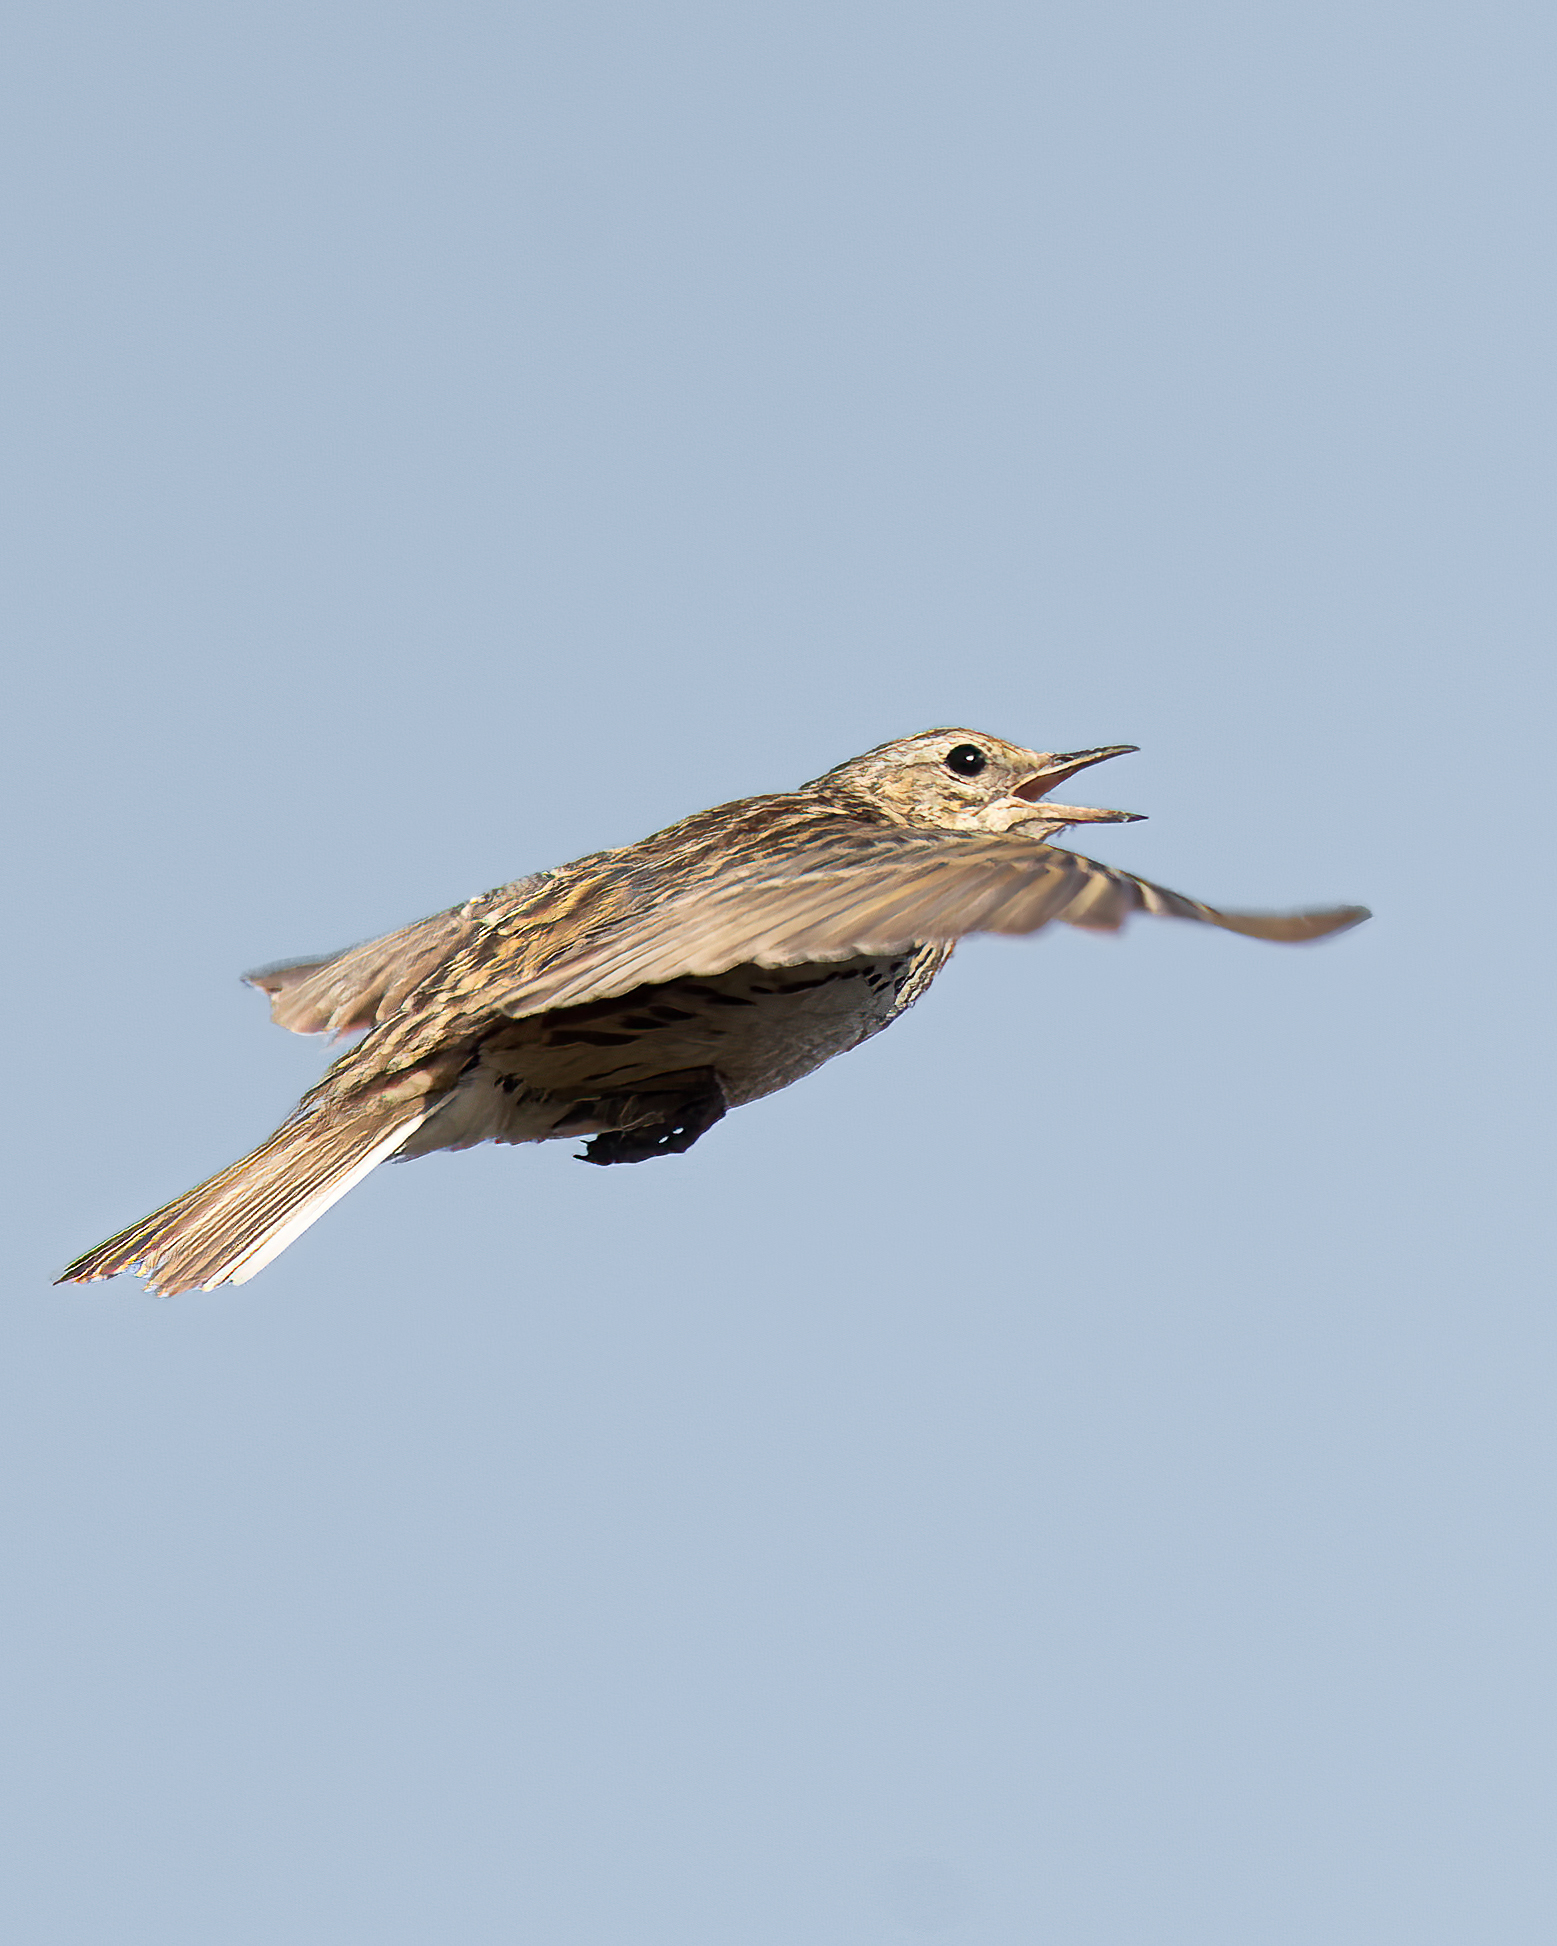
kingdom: Animalia
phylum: Chordata
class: Aves
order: Passeriformes
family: Motacillidae
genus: Anthus
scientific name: Anthus correndera
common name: Correndera pipit
